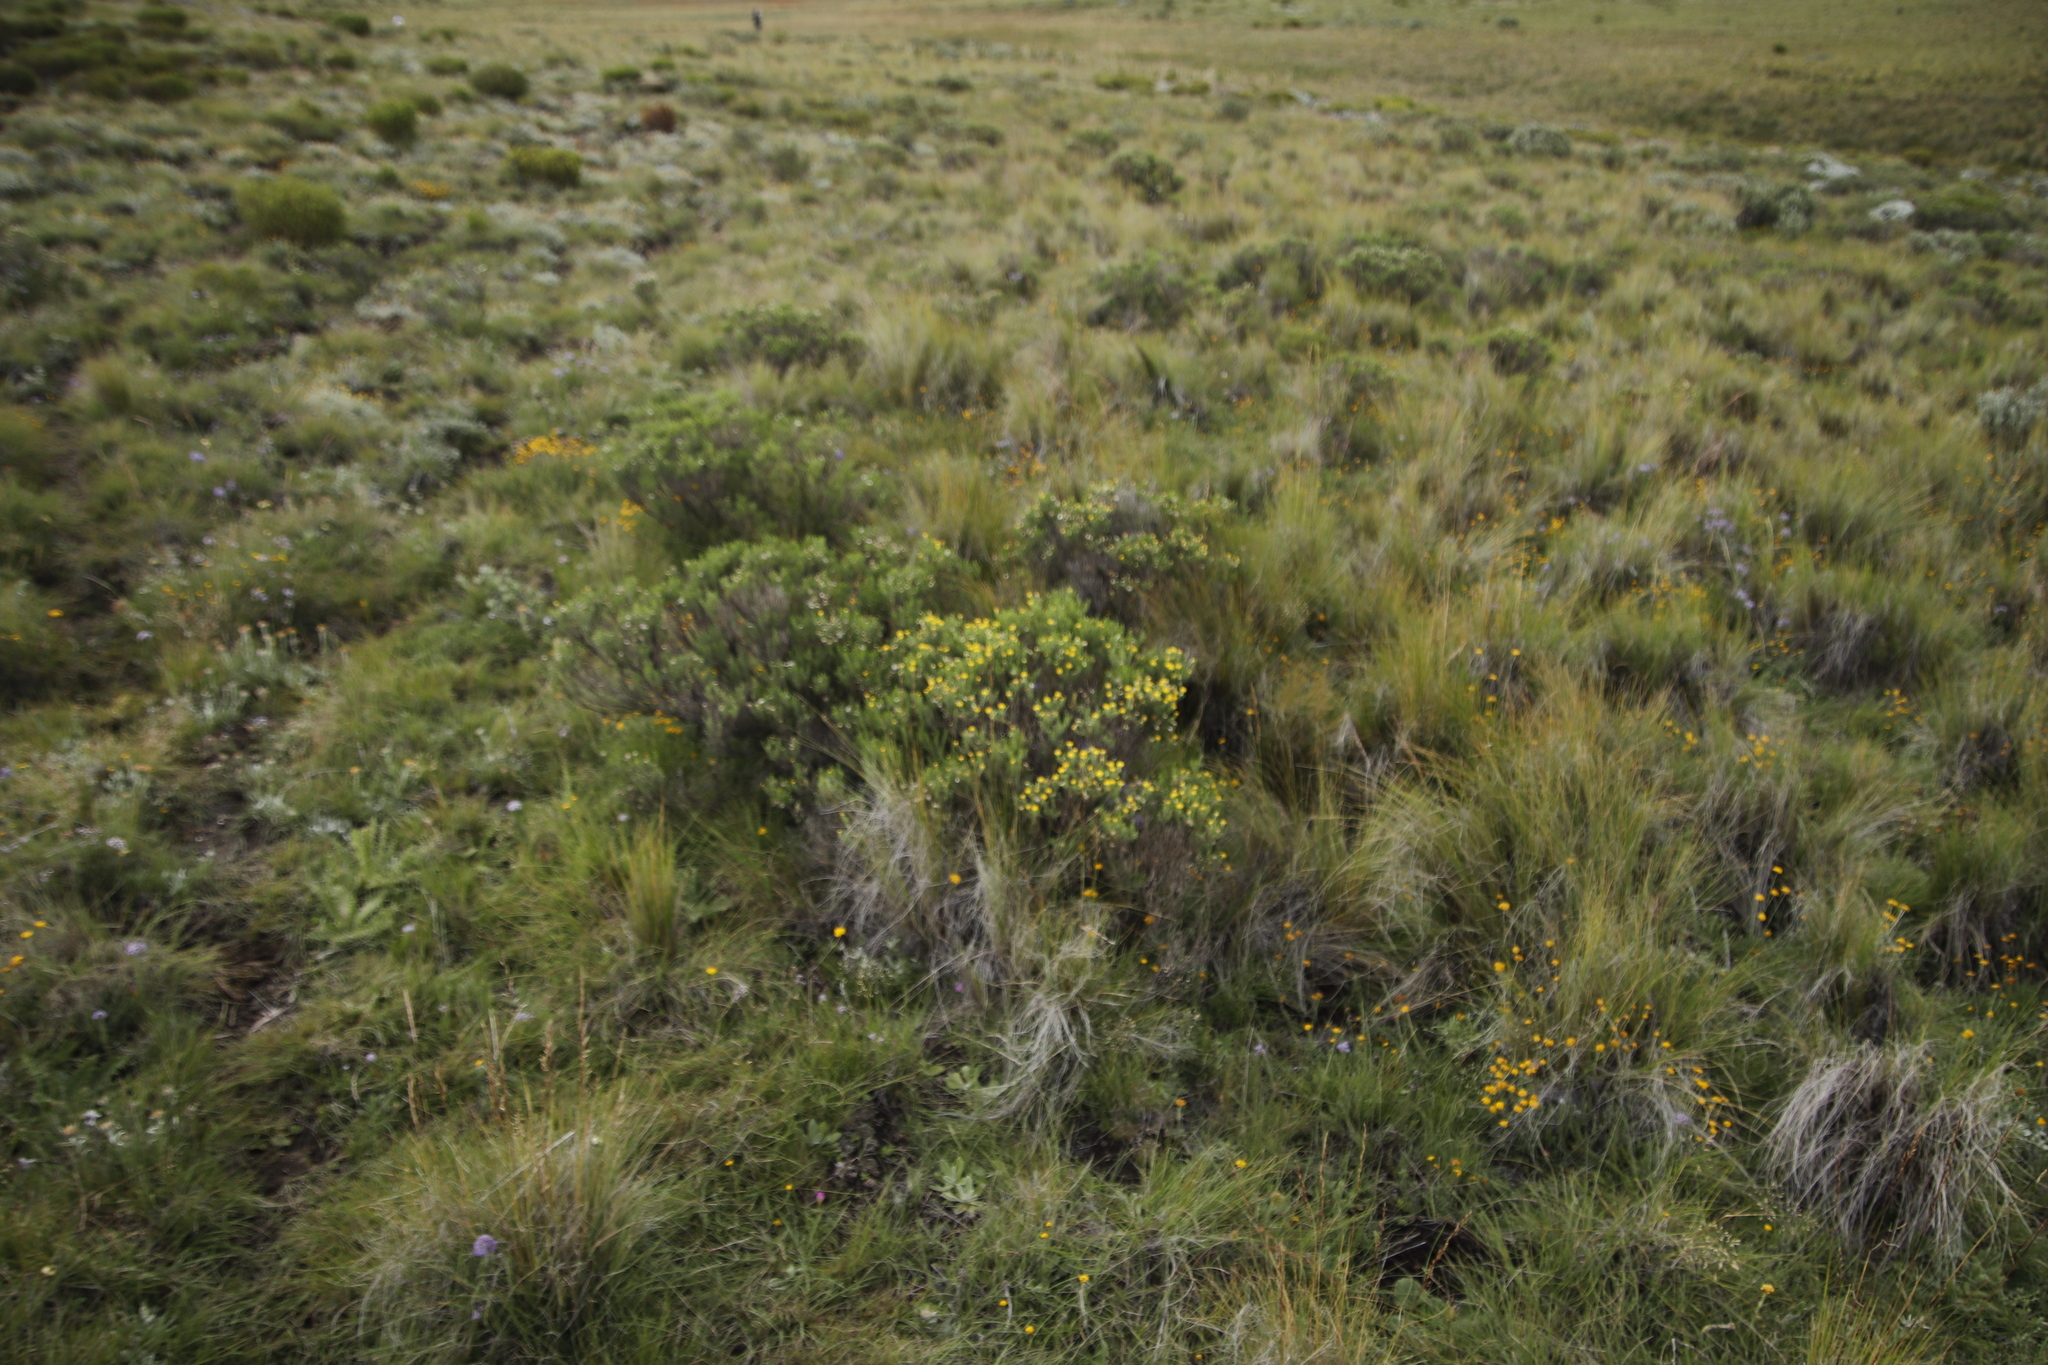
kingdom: Plantae
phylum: Tracheophyta
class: Magnoliopsida
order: Asterales
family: Asteraceae
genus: Chrysocoma
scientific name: Chrysocoma ciliata
